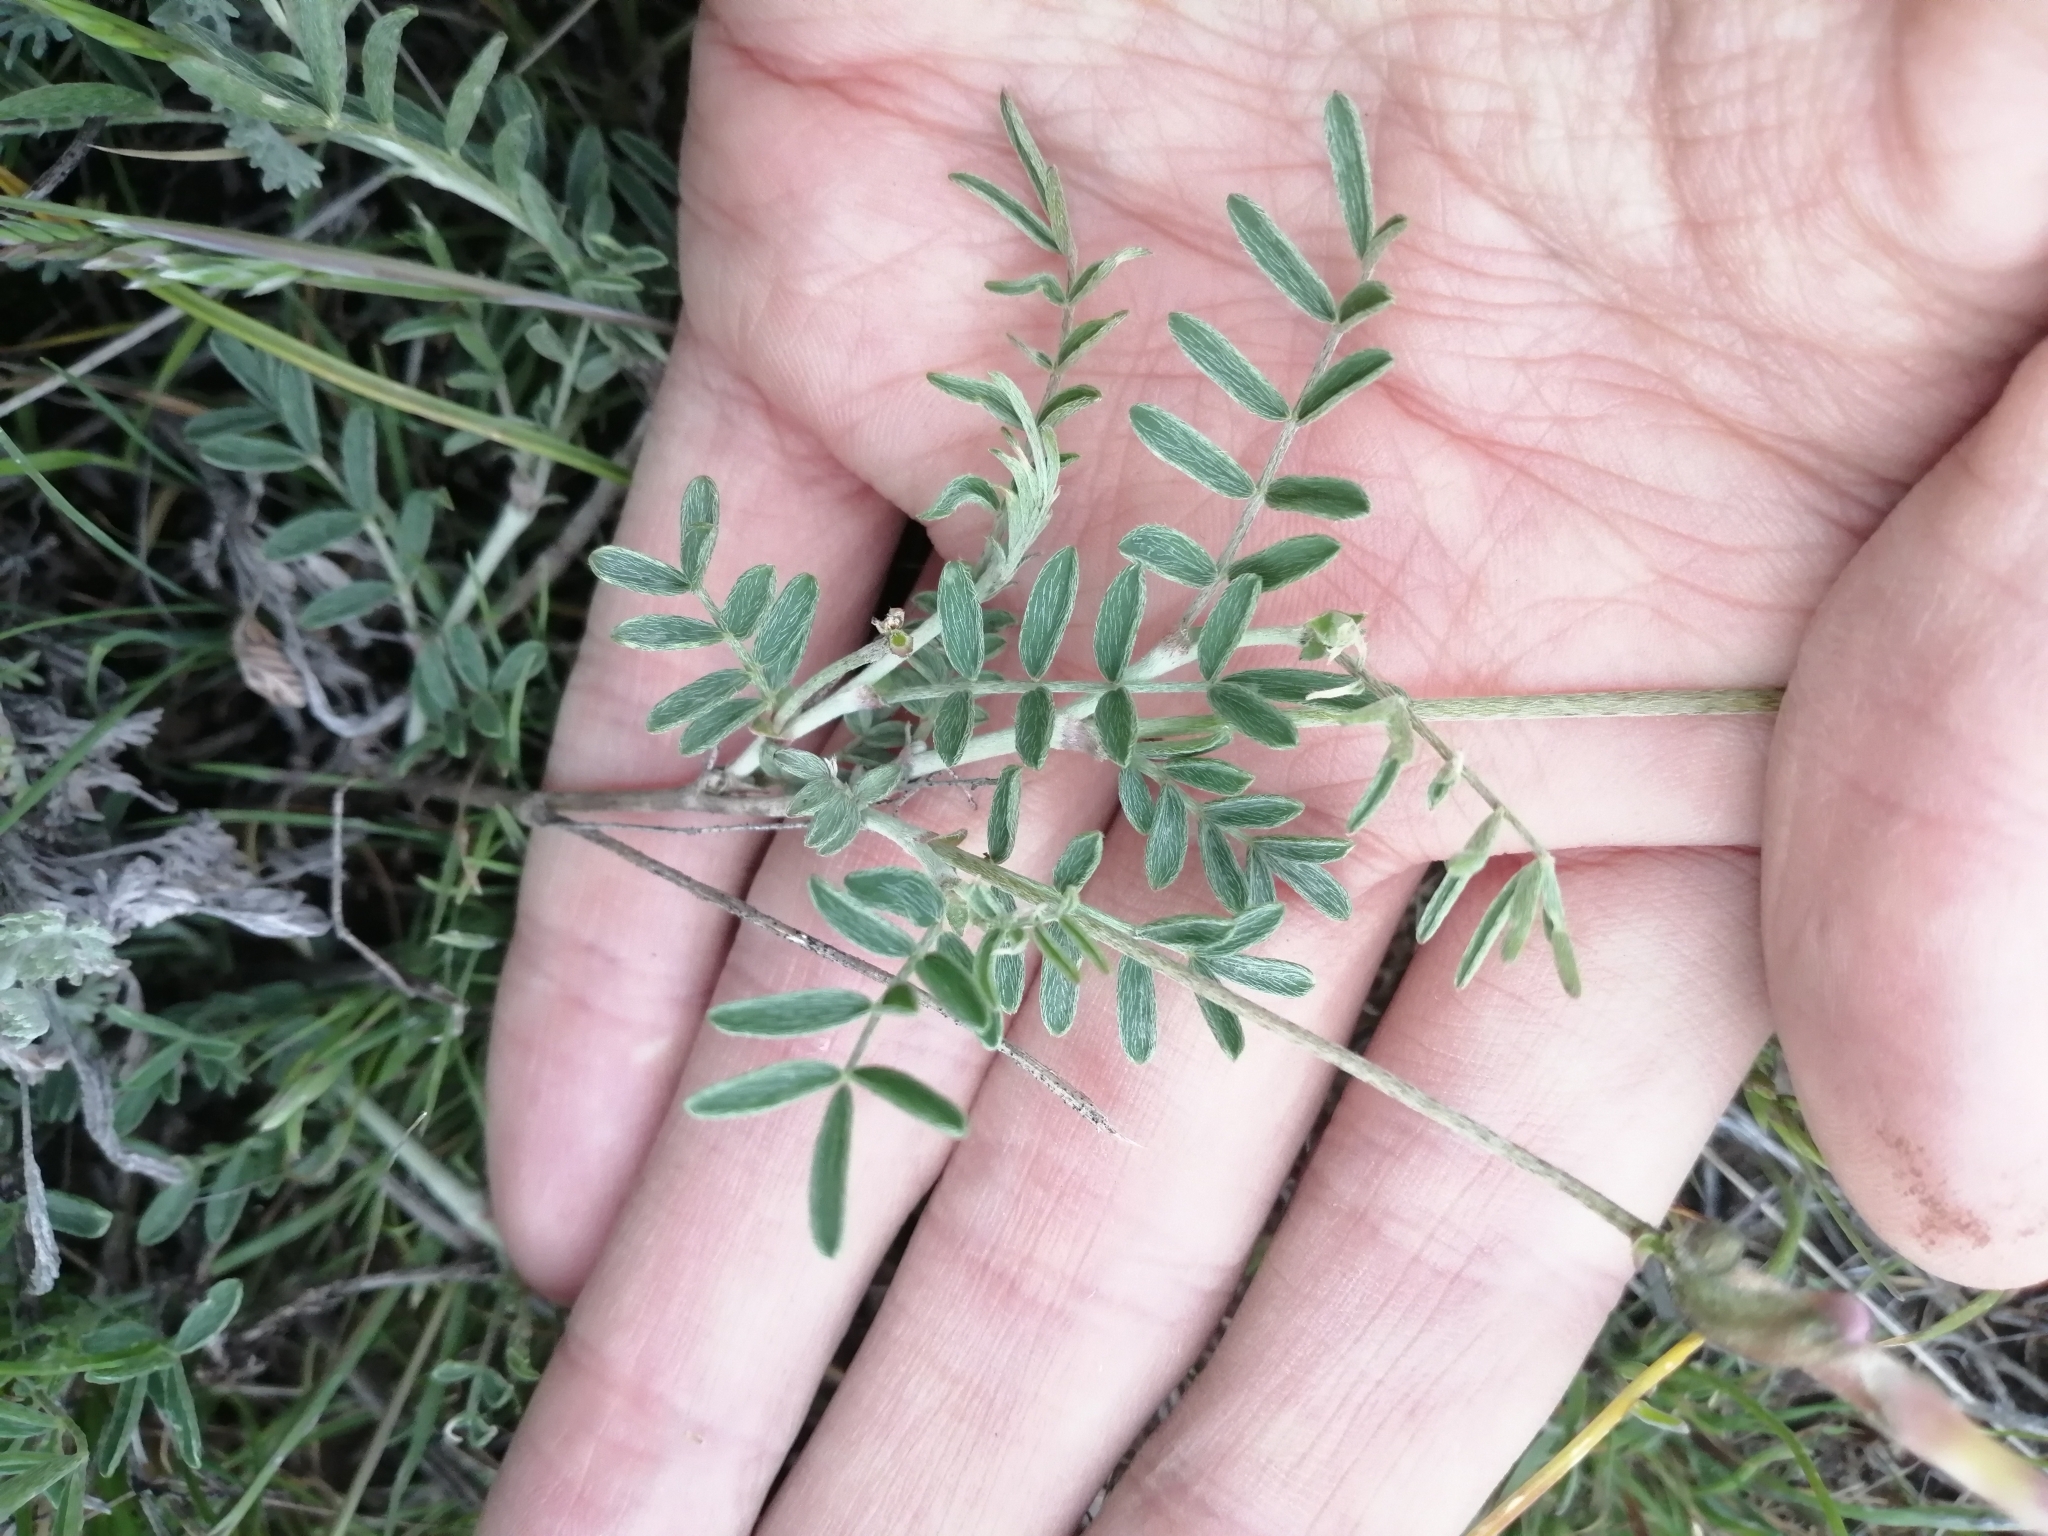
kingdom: Plantae
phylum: Tracheophyta
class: Magnoliopsida
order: Fabales
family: Fabaceae
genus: Astragalus
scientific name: Astragalus macropus
